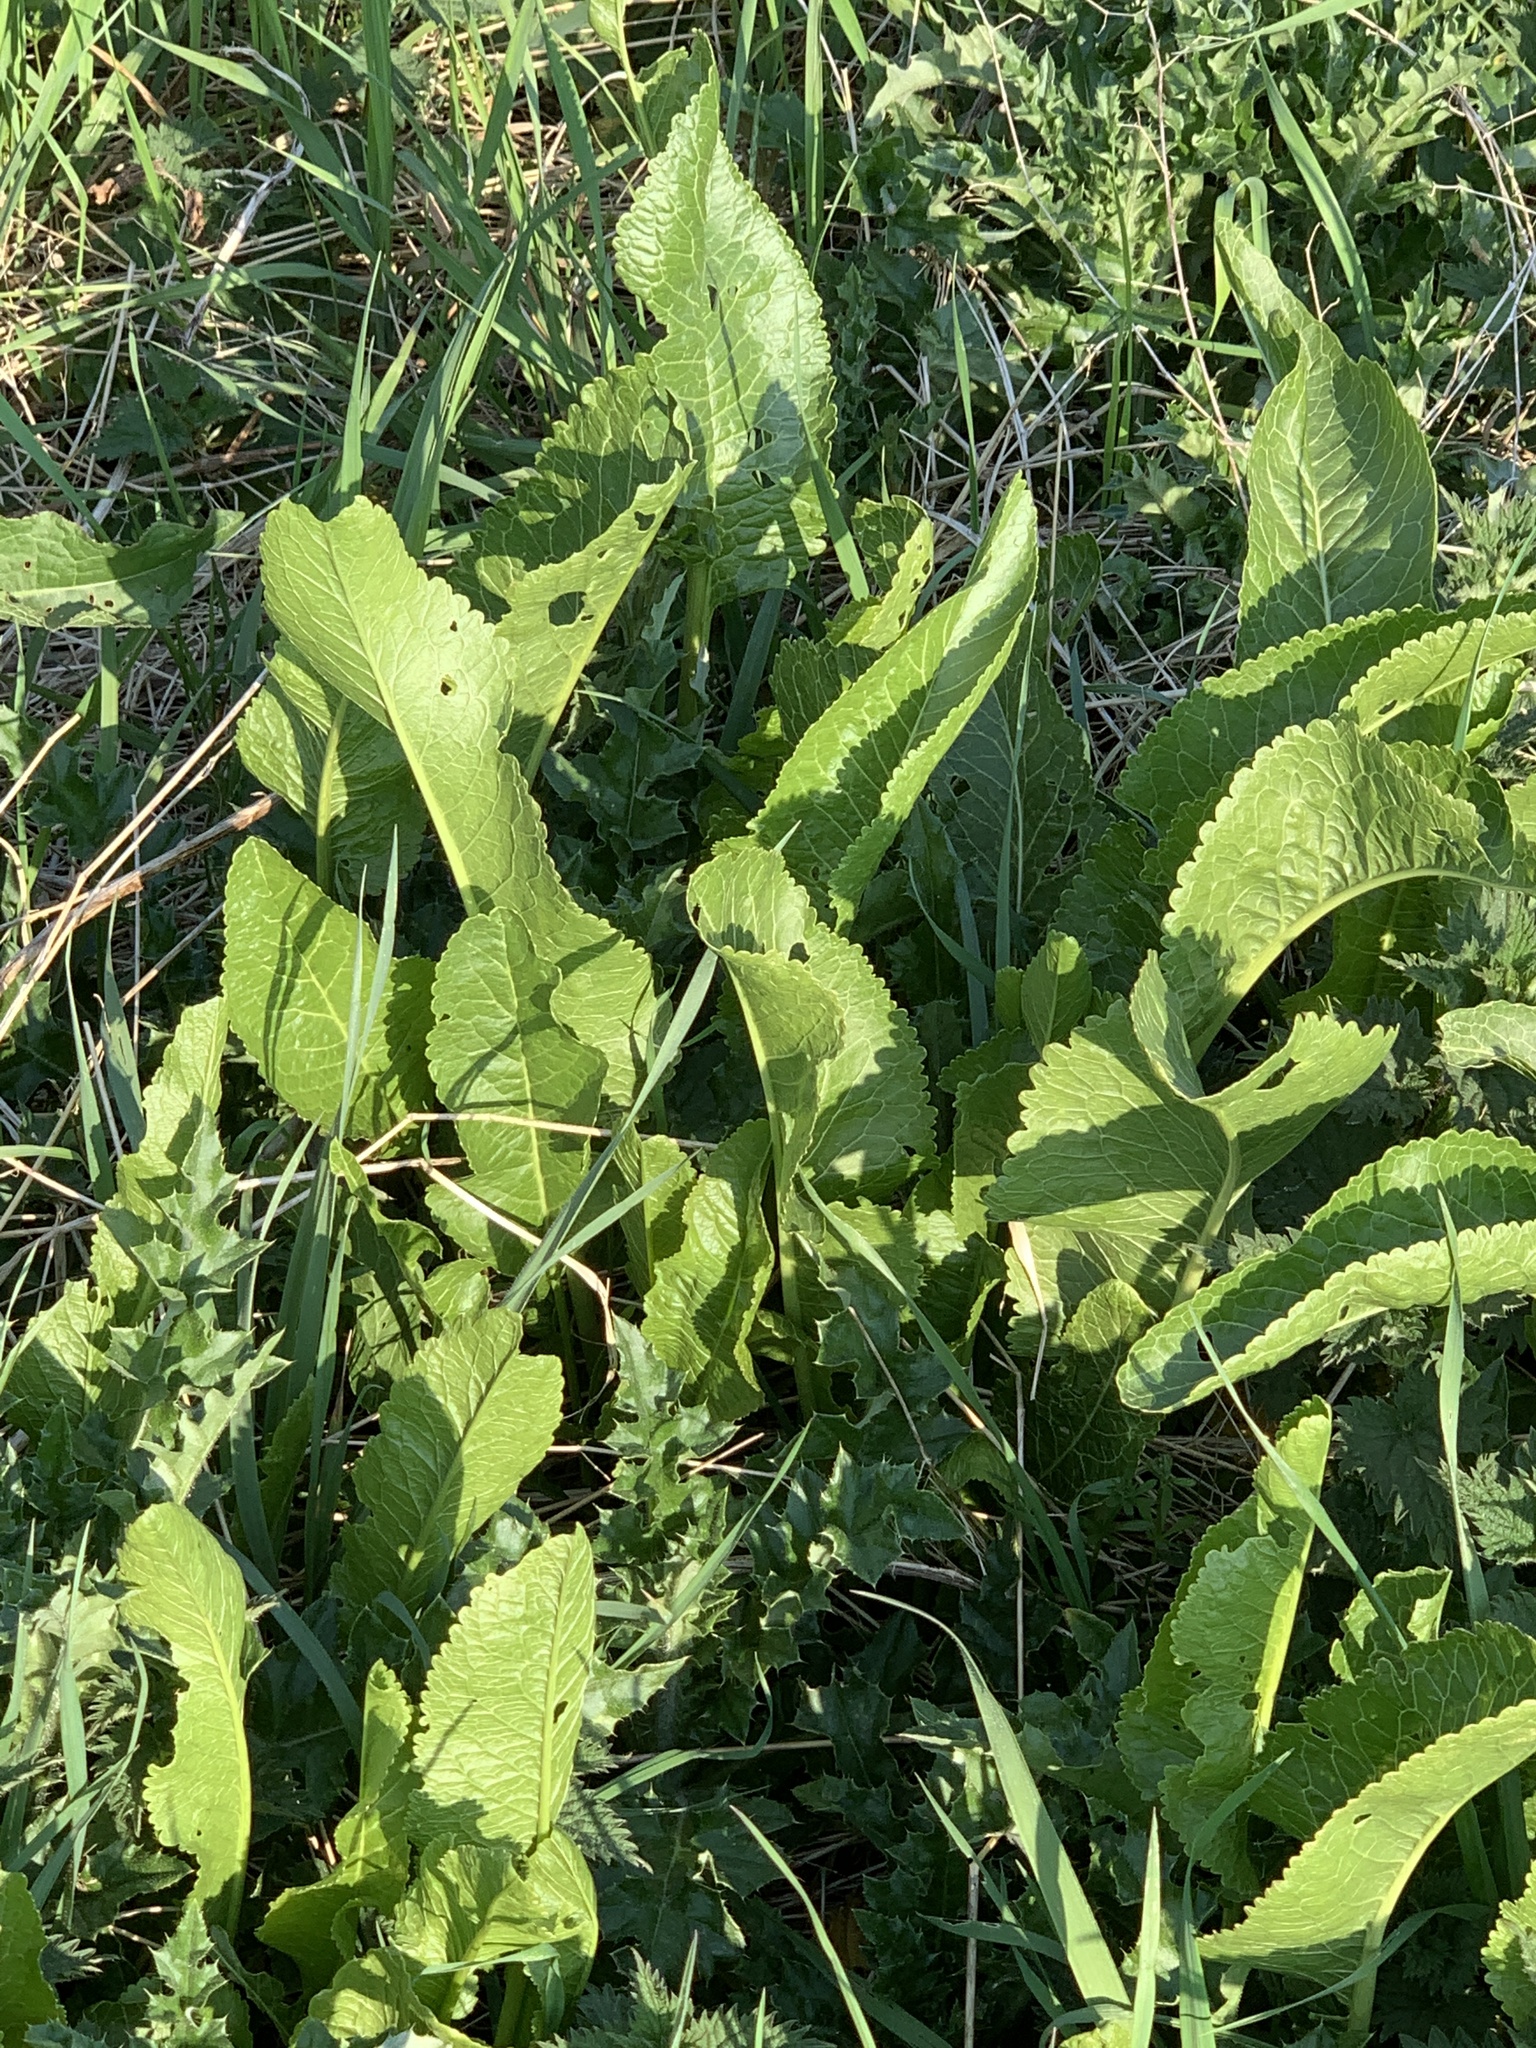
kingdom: Plantae
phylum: Tracheophyta
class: Magnoliopsida
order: Brassicales
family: Brassicaceae
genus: Armoracia
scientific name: Armoracia rusticana
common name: Horseradish
